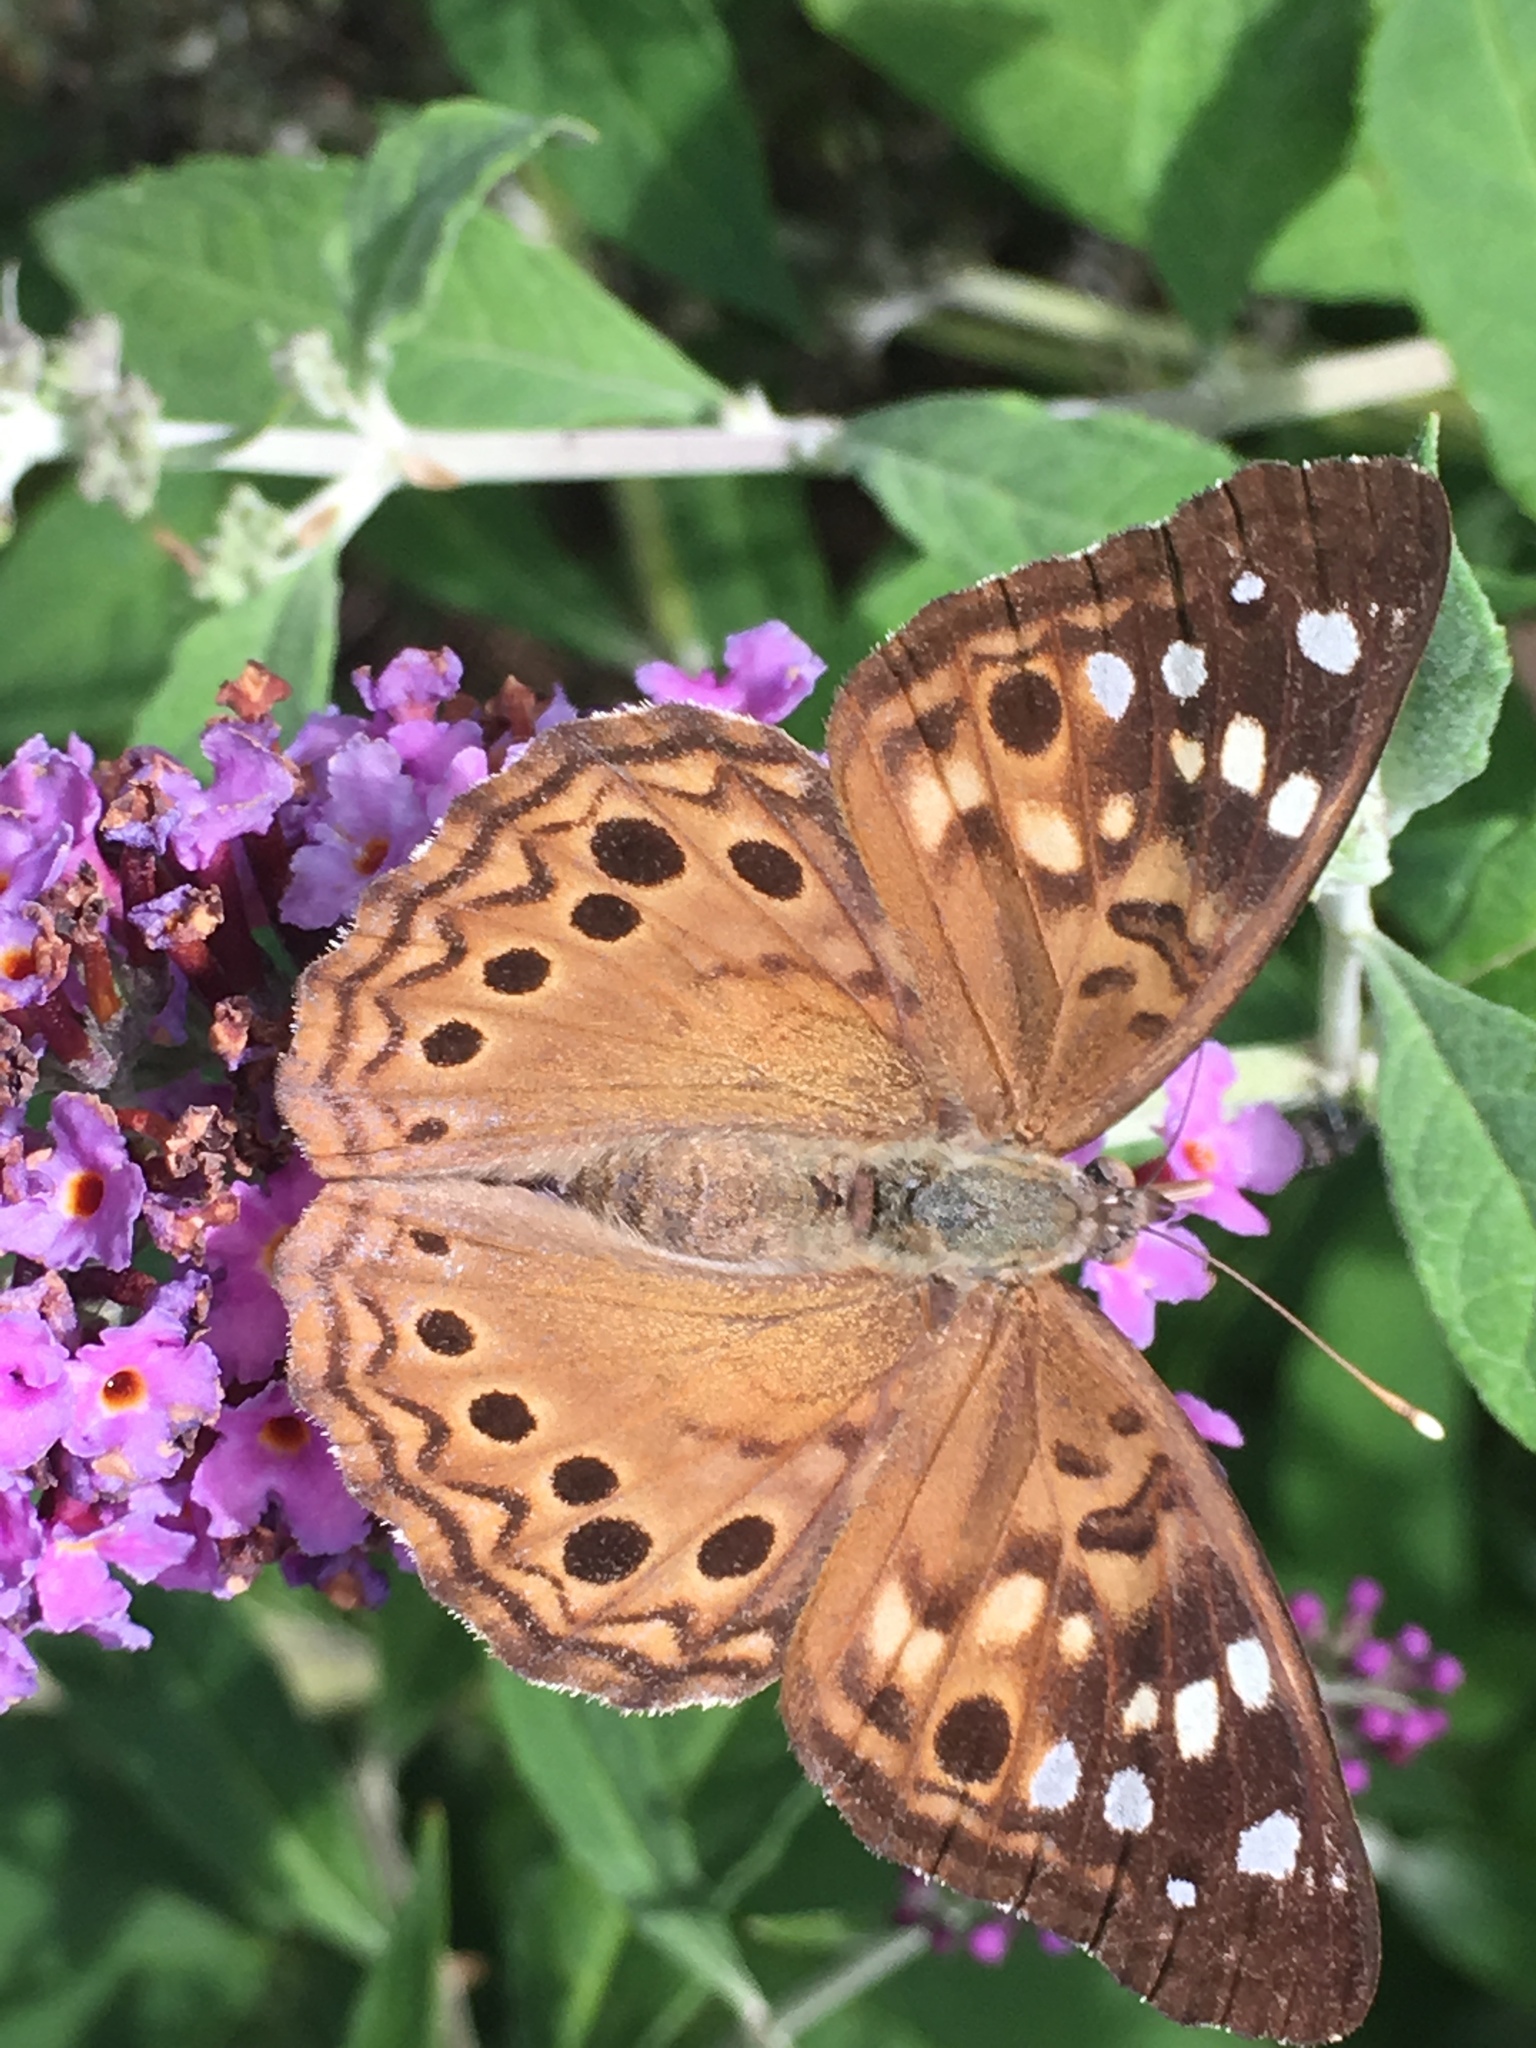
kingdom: Animalia
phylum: Arthropoda
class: Insecta
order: Lepidoptera
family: Nymphalidae
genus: Asterocampa
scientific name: Asterocampa celtis
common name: Hackberry emperor
